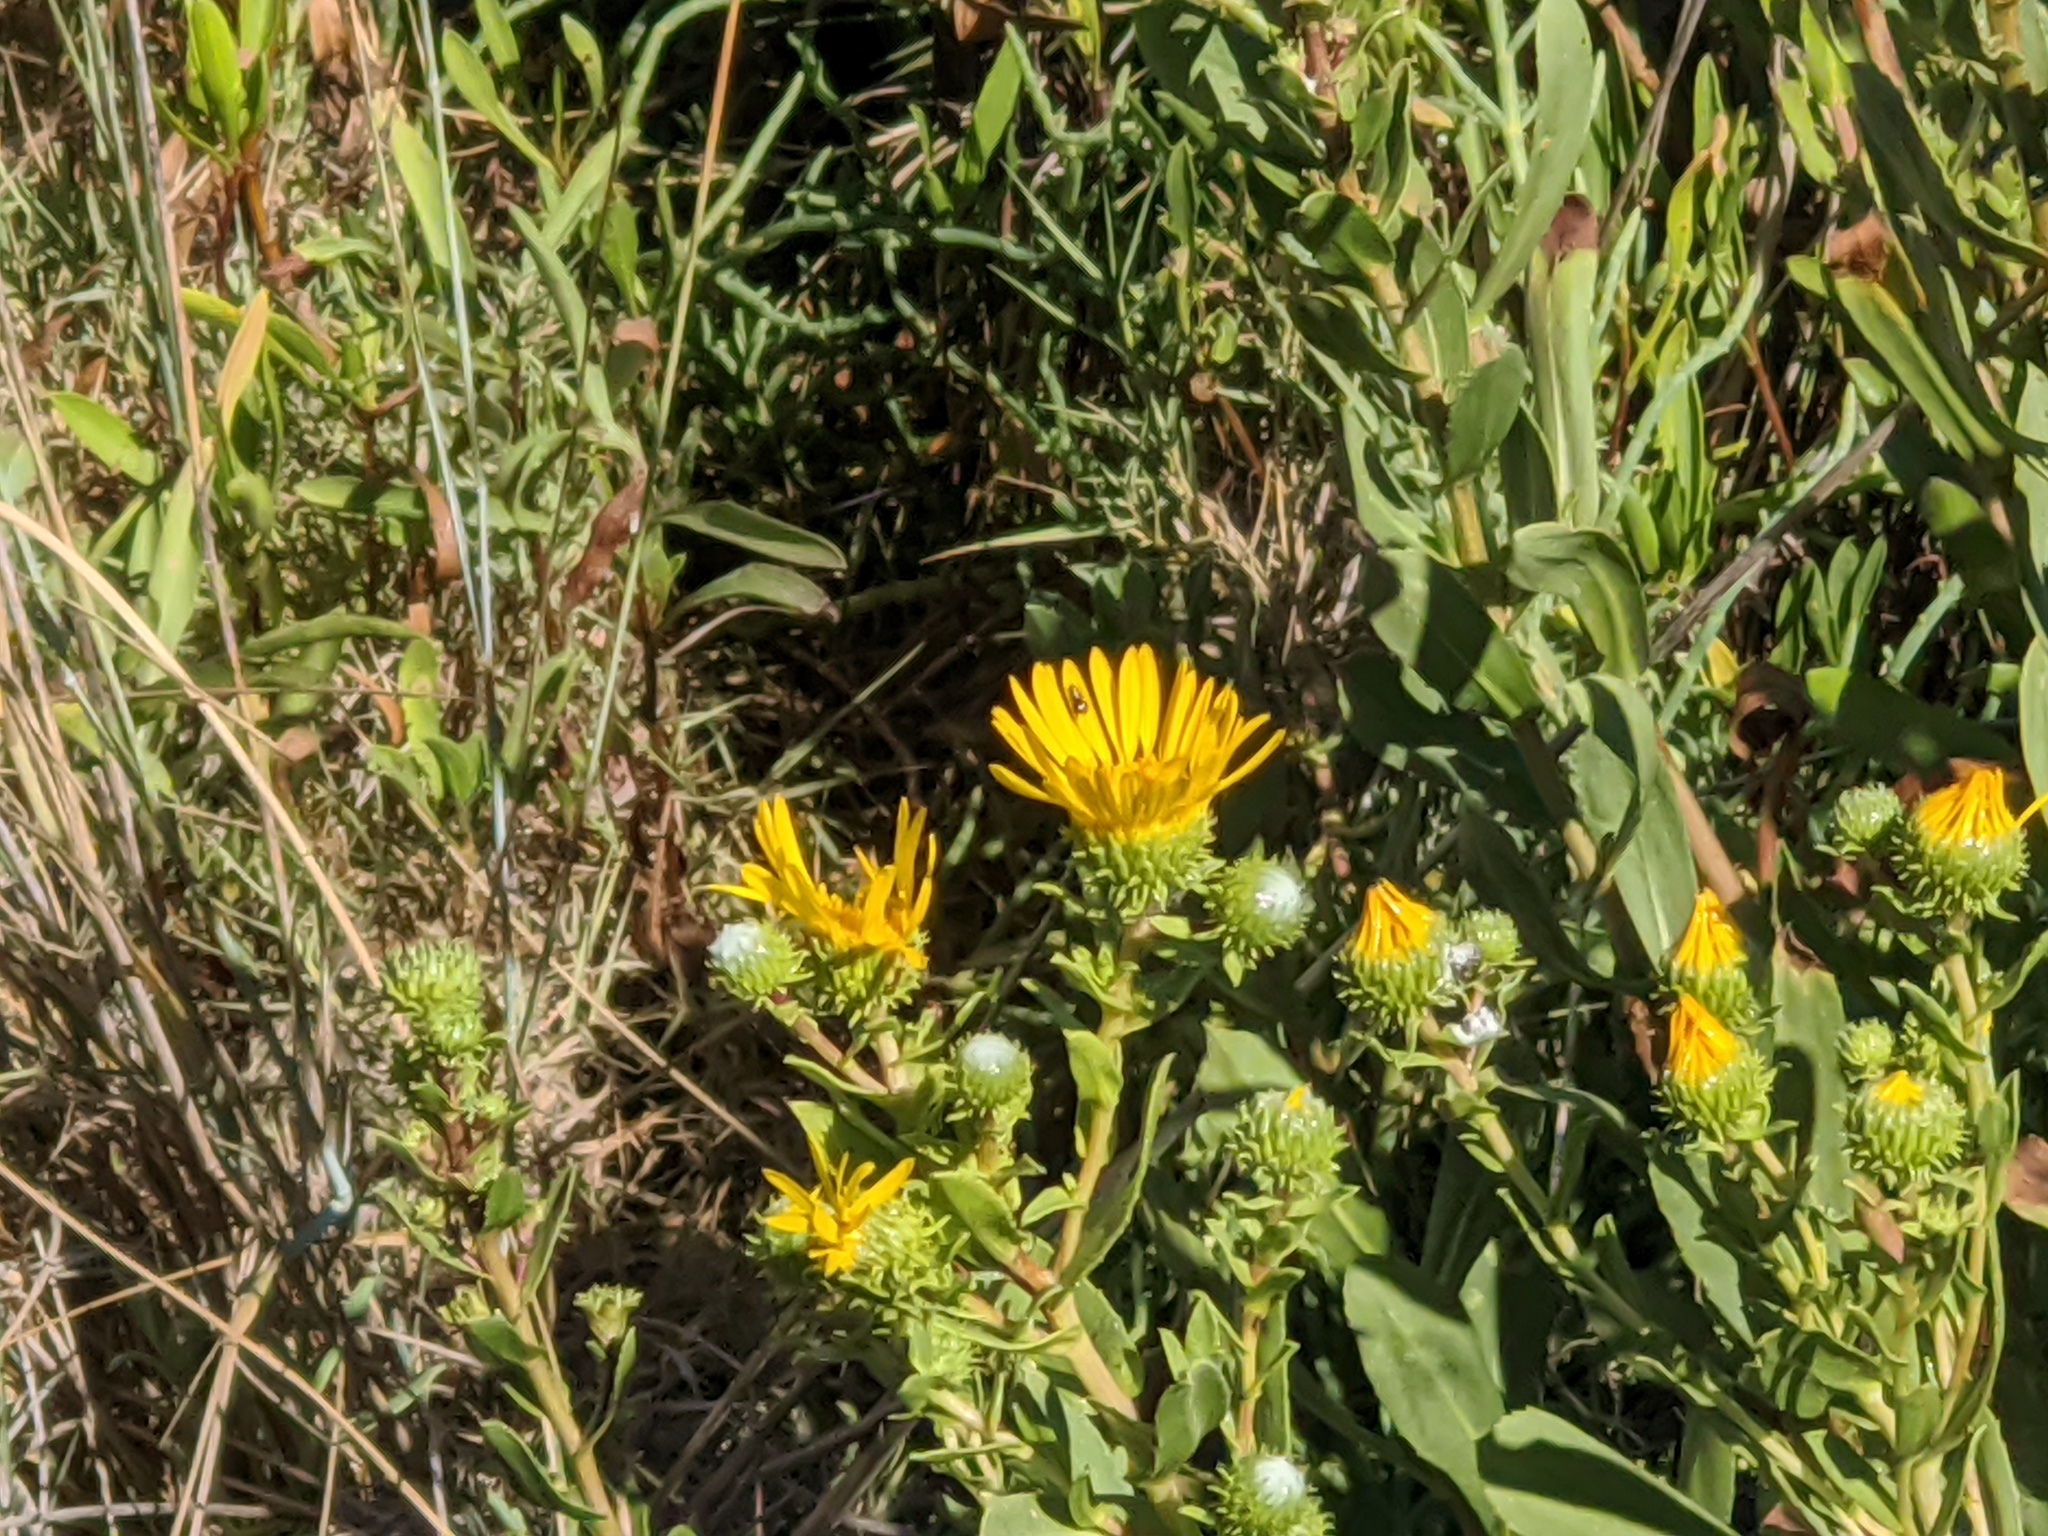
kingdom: Plantae
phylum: Tracheophyta
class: Magnoliopsida
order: Asterales
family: Asteraceae
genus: Grindelia
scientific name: Grindelia hirsutula
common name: Hairy gumweed
